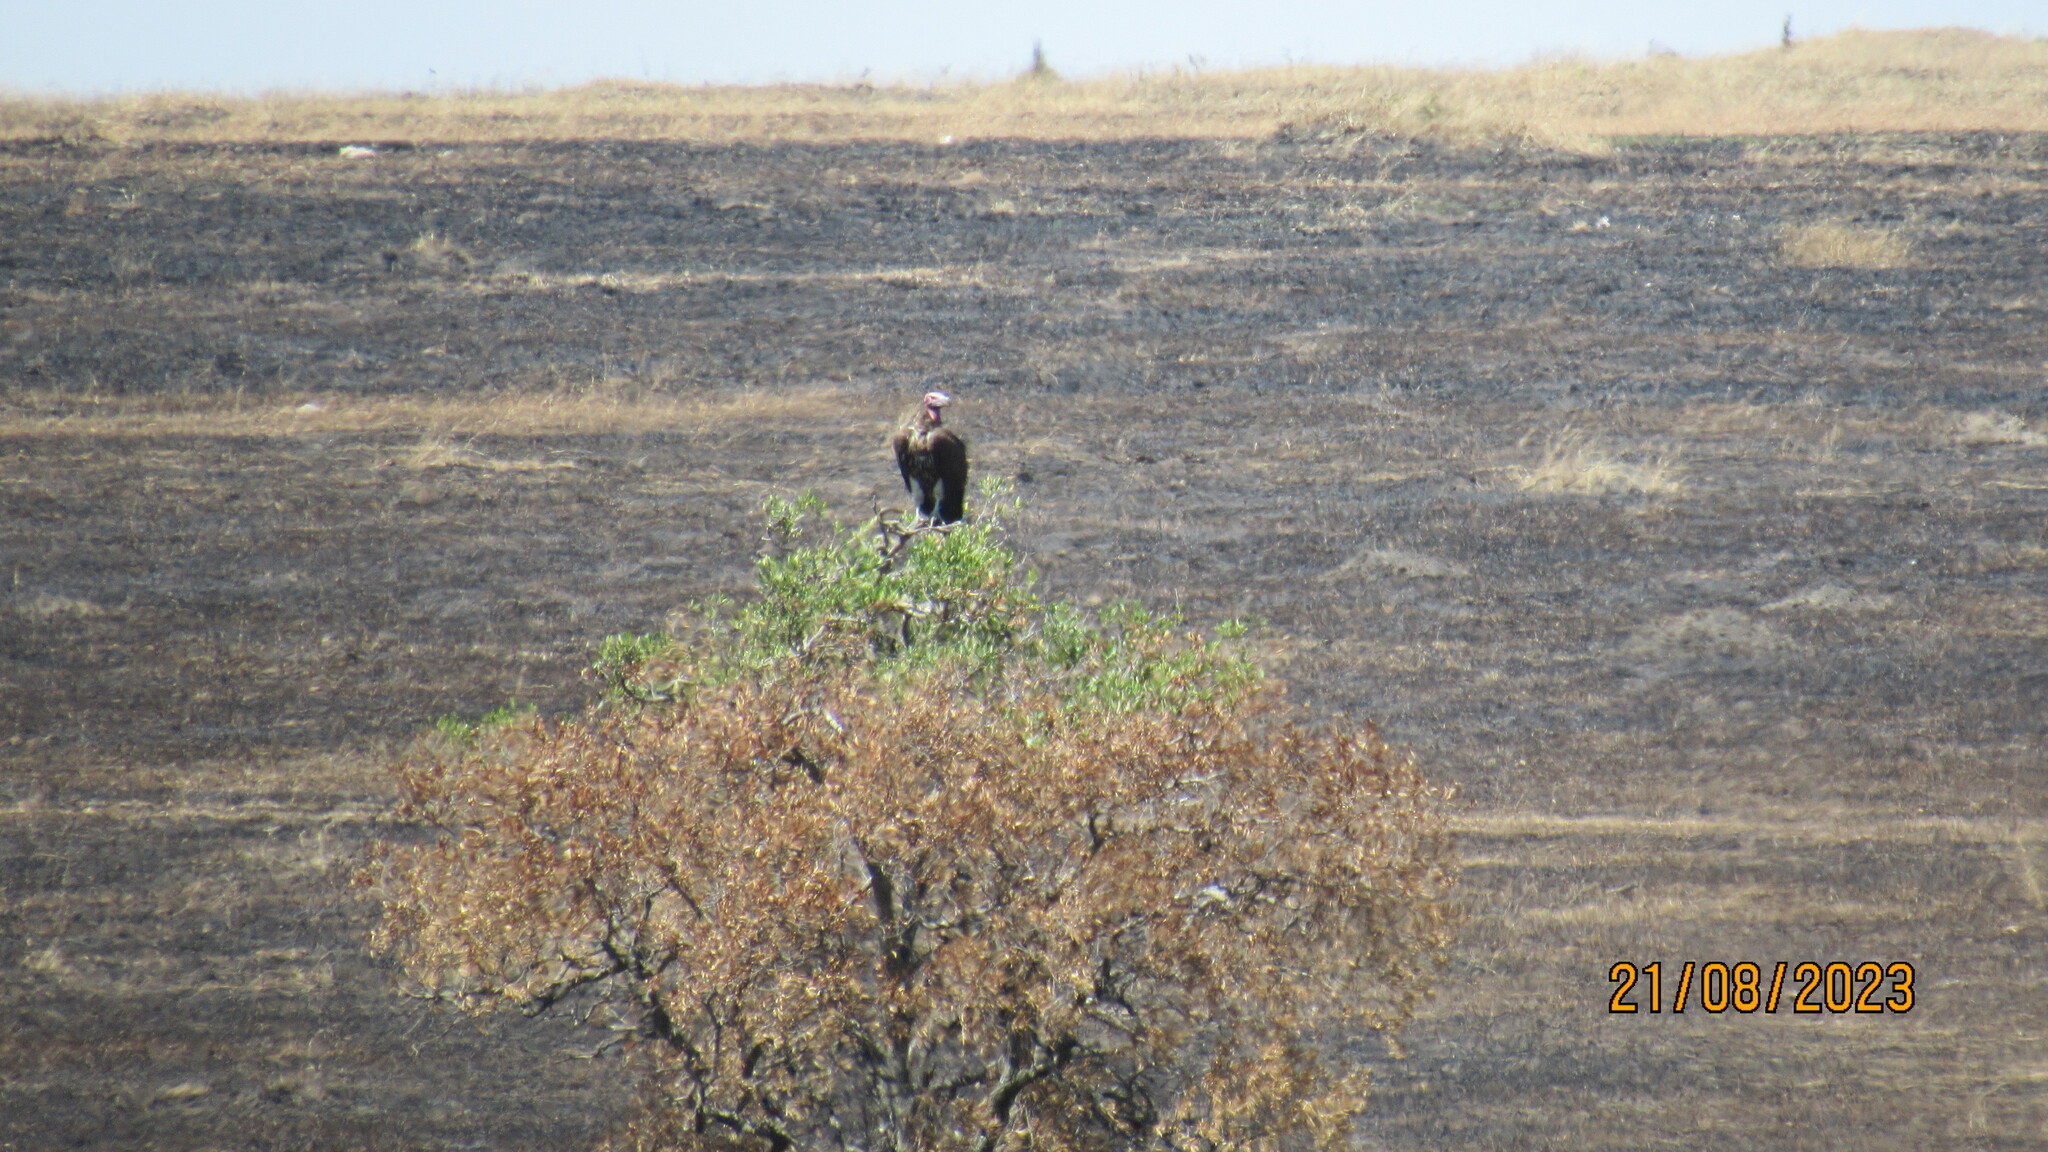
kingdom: Animalia
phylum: Chordata
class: Aves
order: Accipitriformes
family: Accipitridae
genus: Torgos
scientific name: Torgos tracheliotos
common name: Lappet-faced vulture
